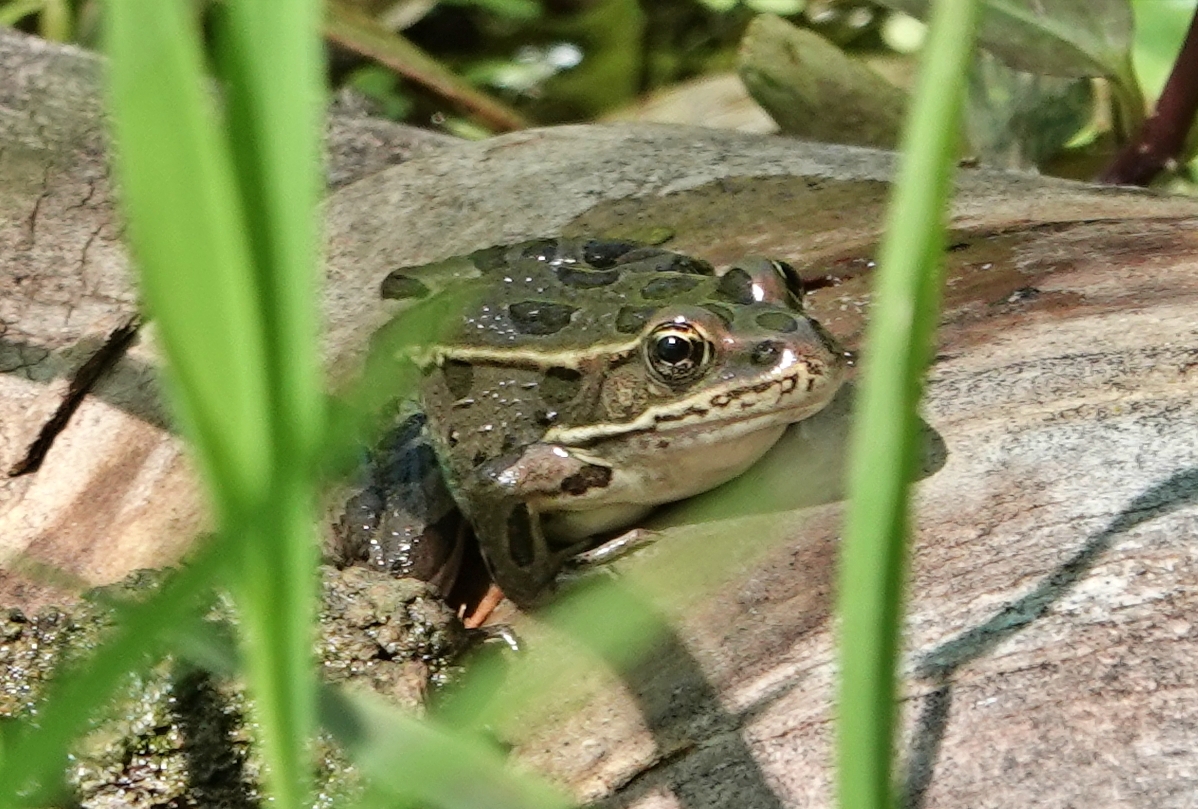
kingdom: Animalia
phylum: Chordata
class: Amphibia
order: Anura
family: Ranidae
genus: Lithobates
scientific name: Lithobates pipiens
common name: Northern leopard frog
